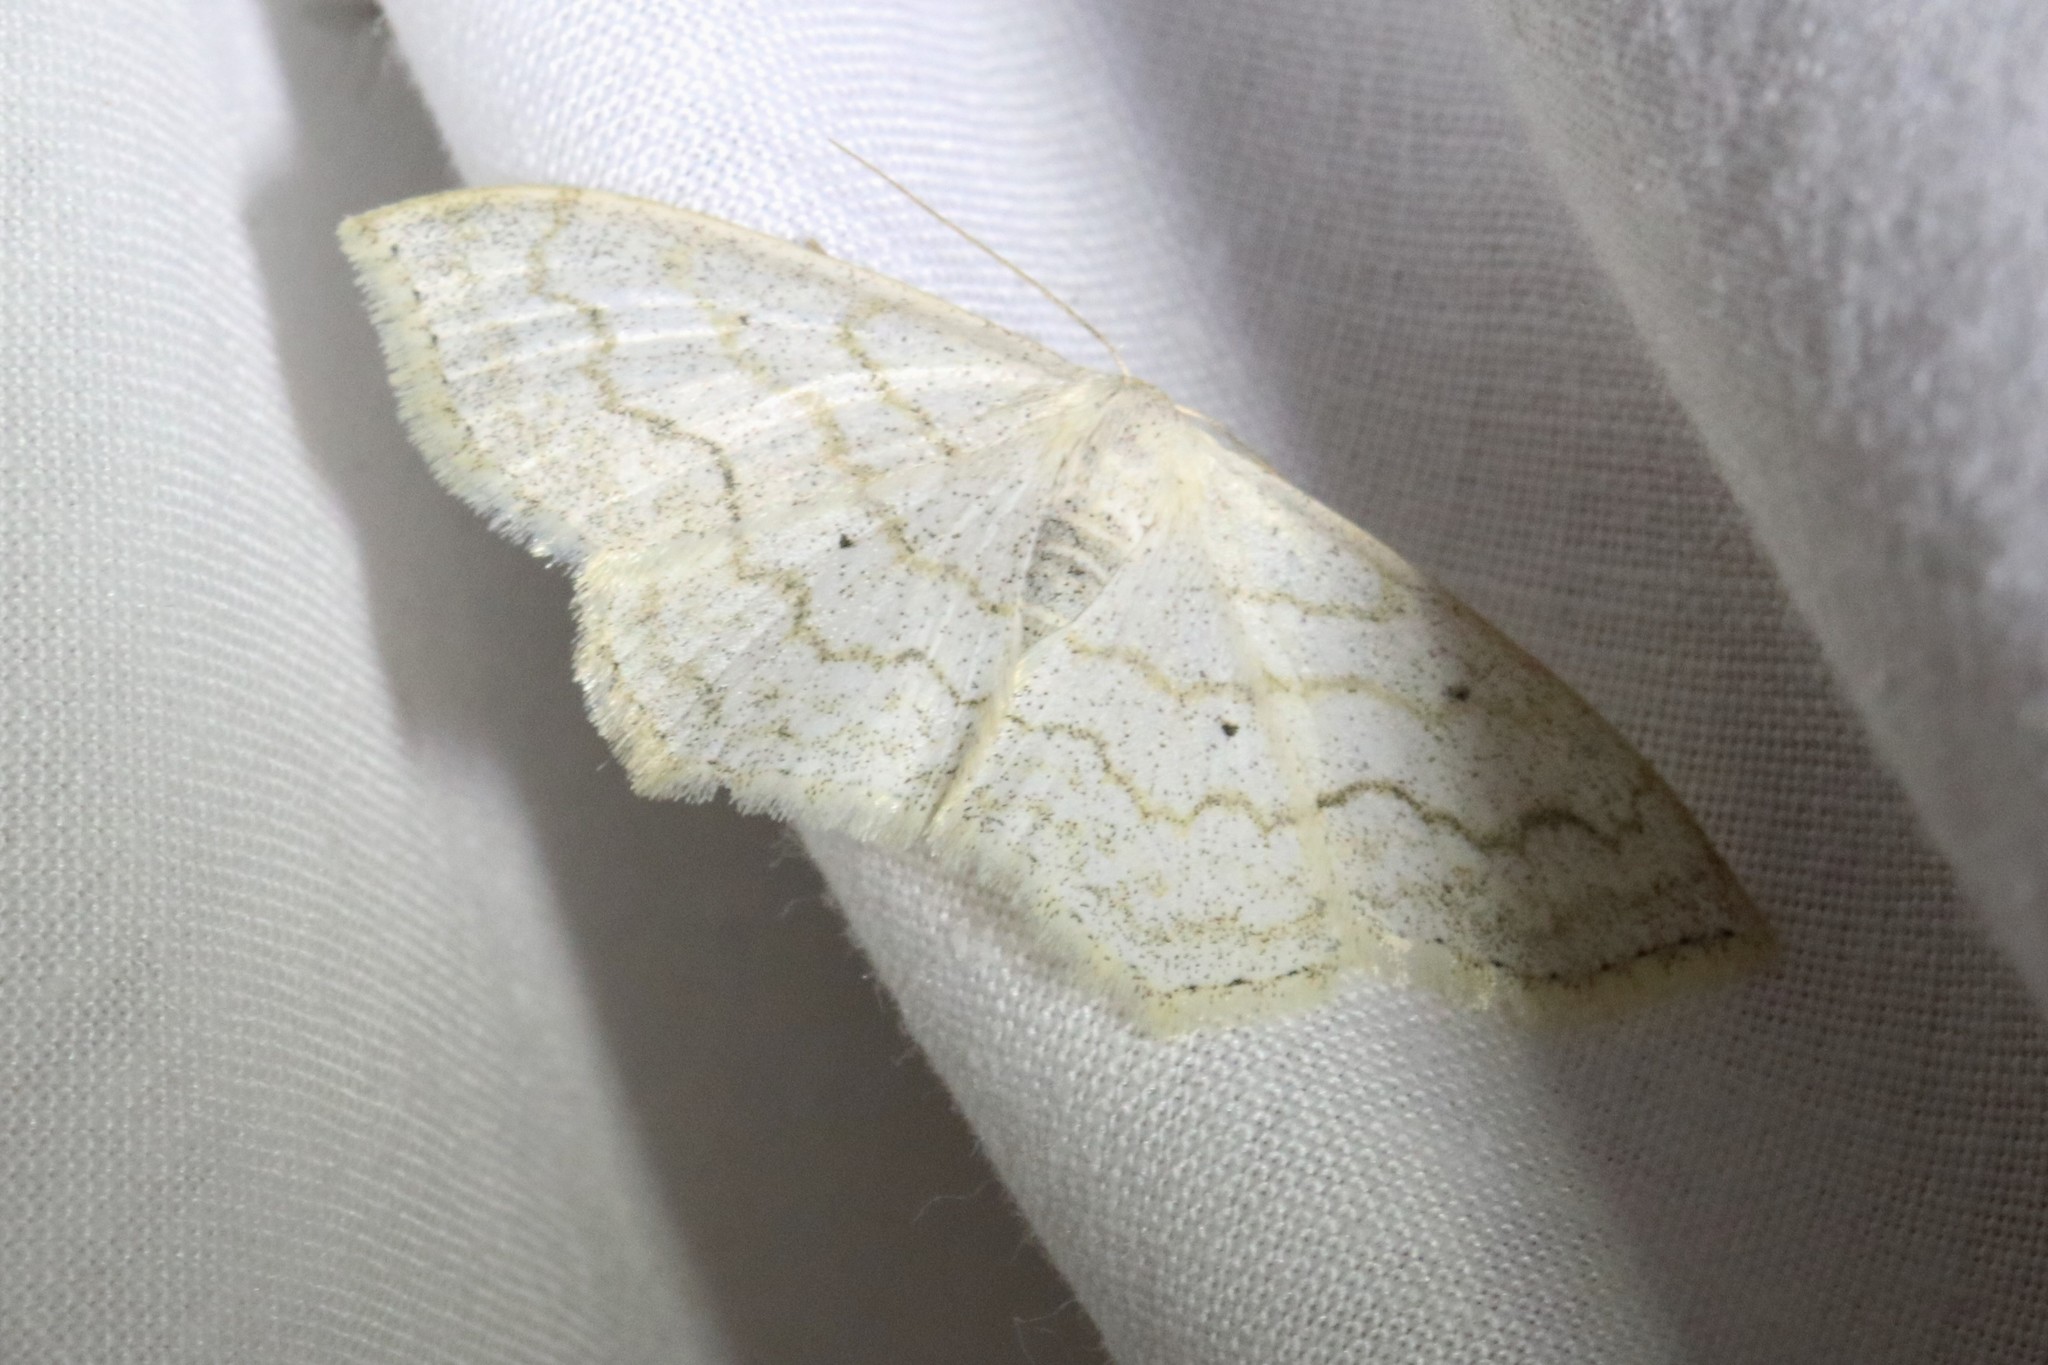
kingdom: Animalia
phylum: Arthropoda
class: Insecta
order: Lepidoptera
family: Geometridae
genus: Scopula
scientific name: Scopula limboundata
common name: Large lace border
